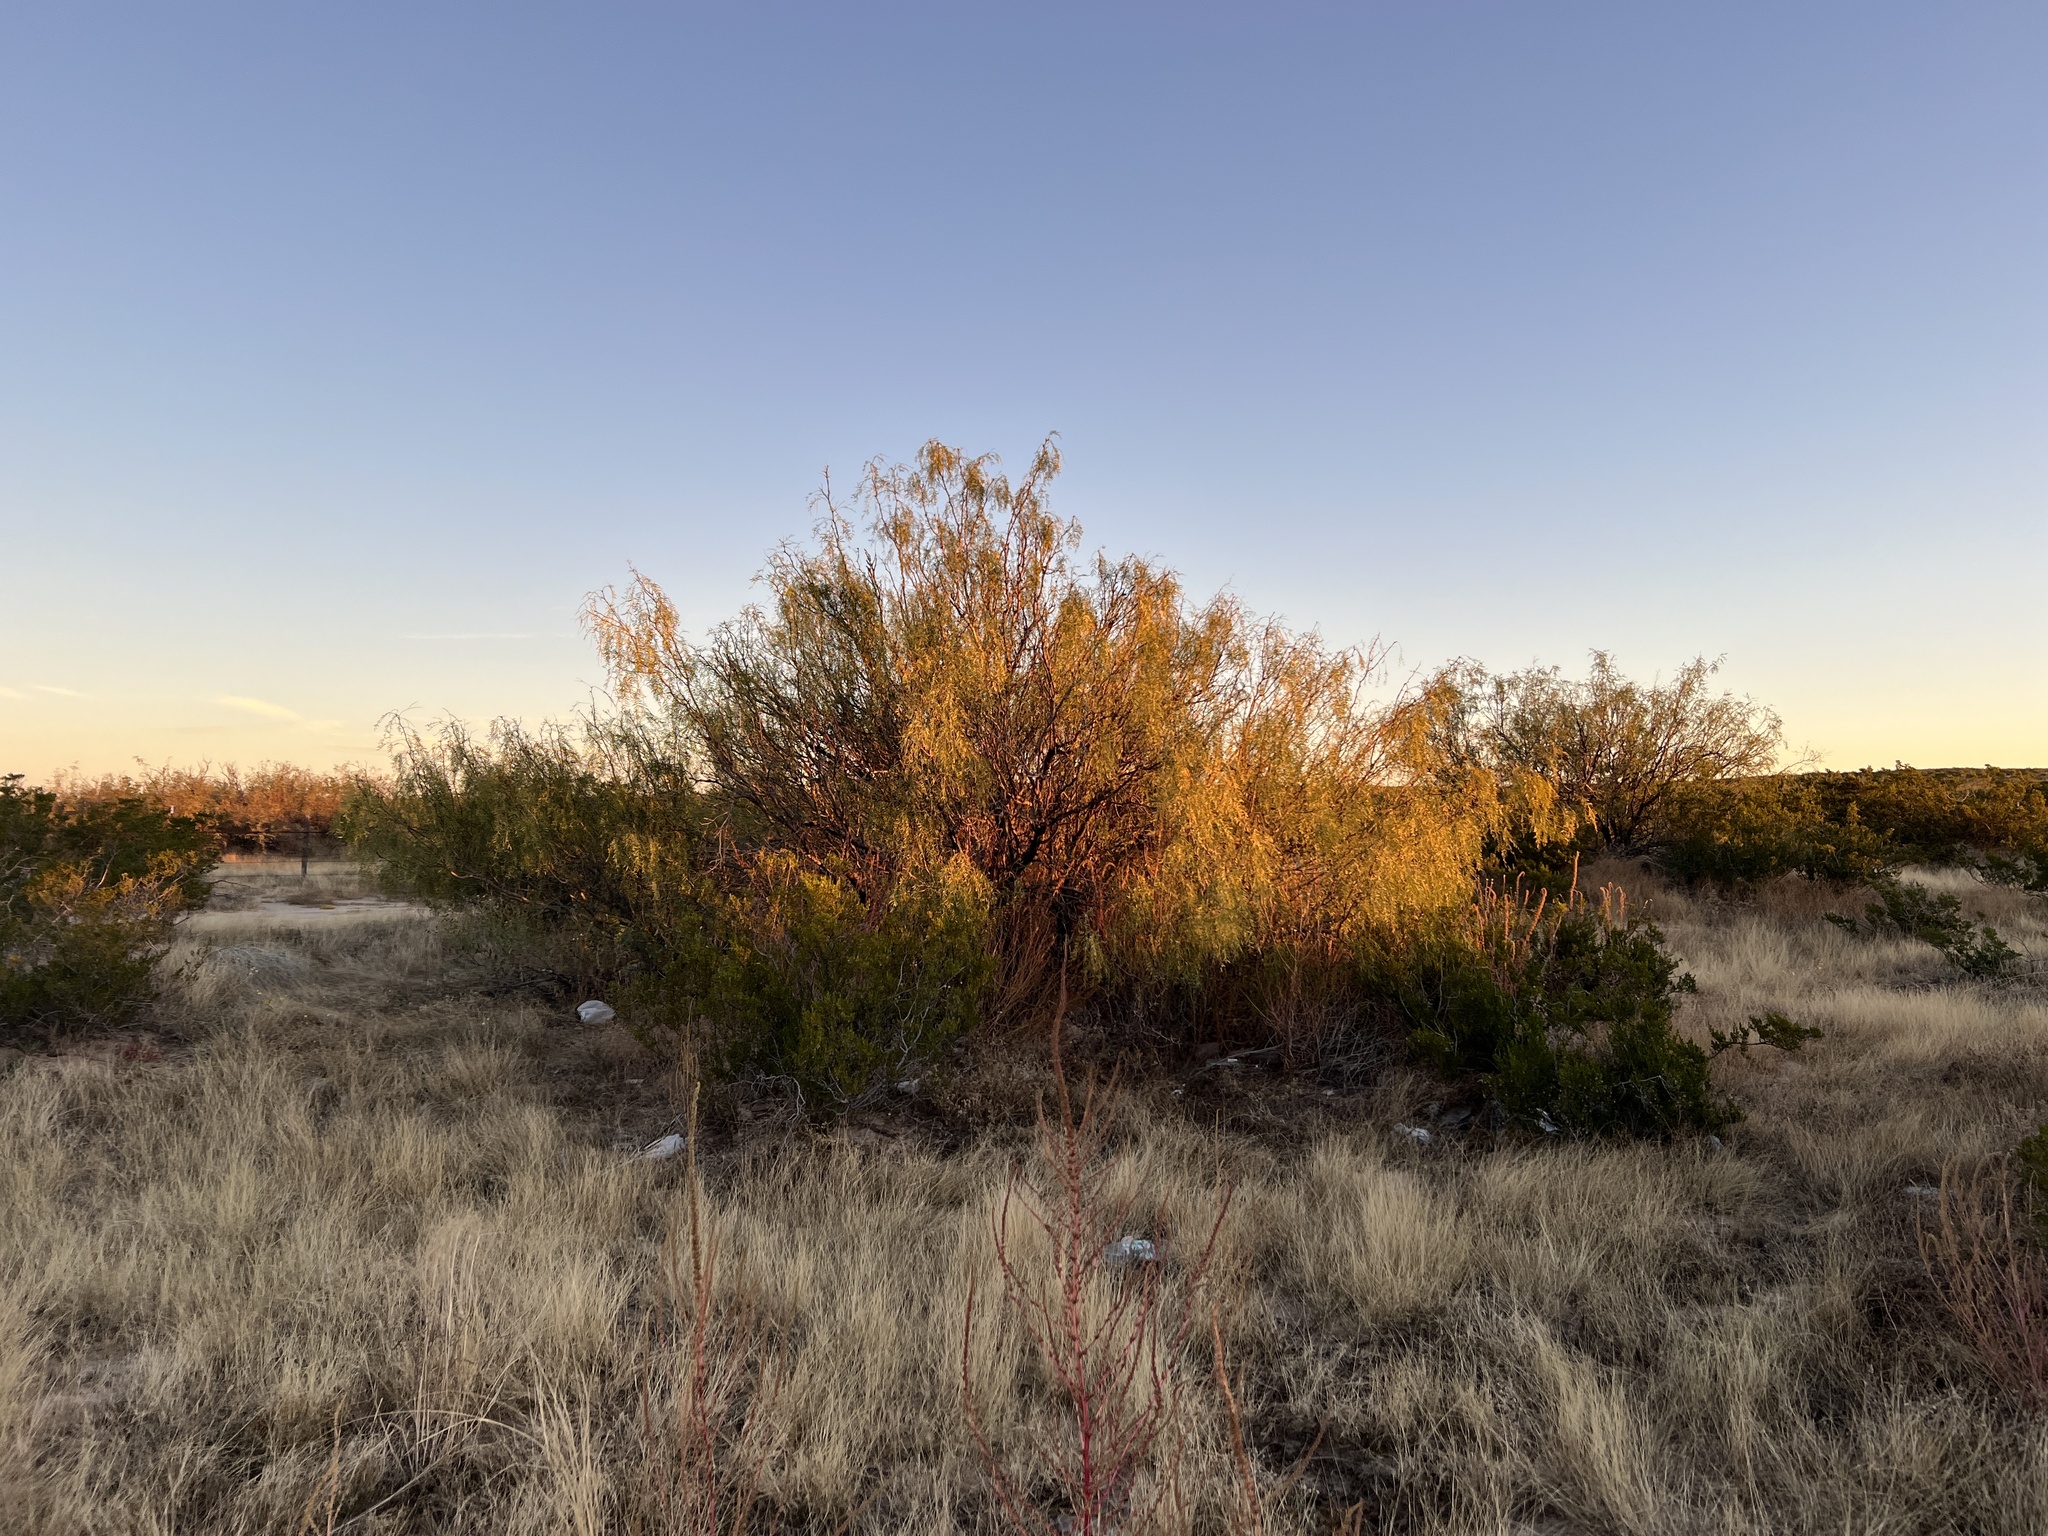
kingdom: Plantae
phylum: Tracheophyta
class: Magnoliopsida
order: Fabales
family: Fabaceae
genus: Prosopis
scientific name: Prosopis glandulosa
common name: Honey mesquite
